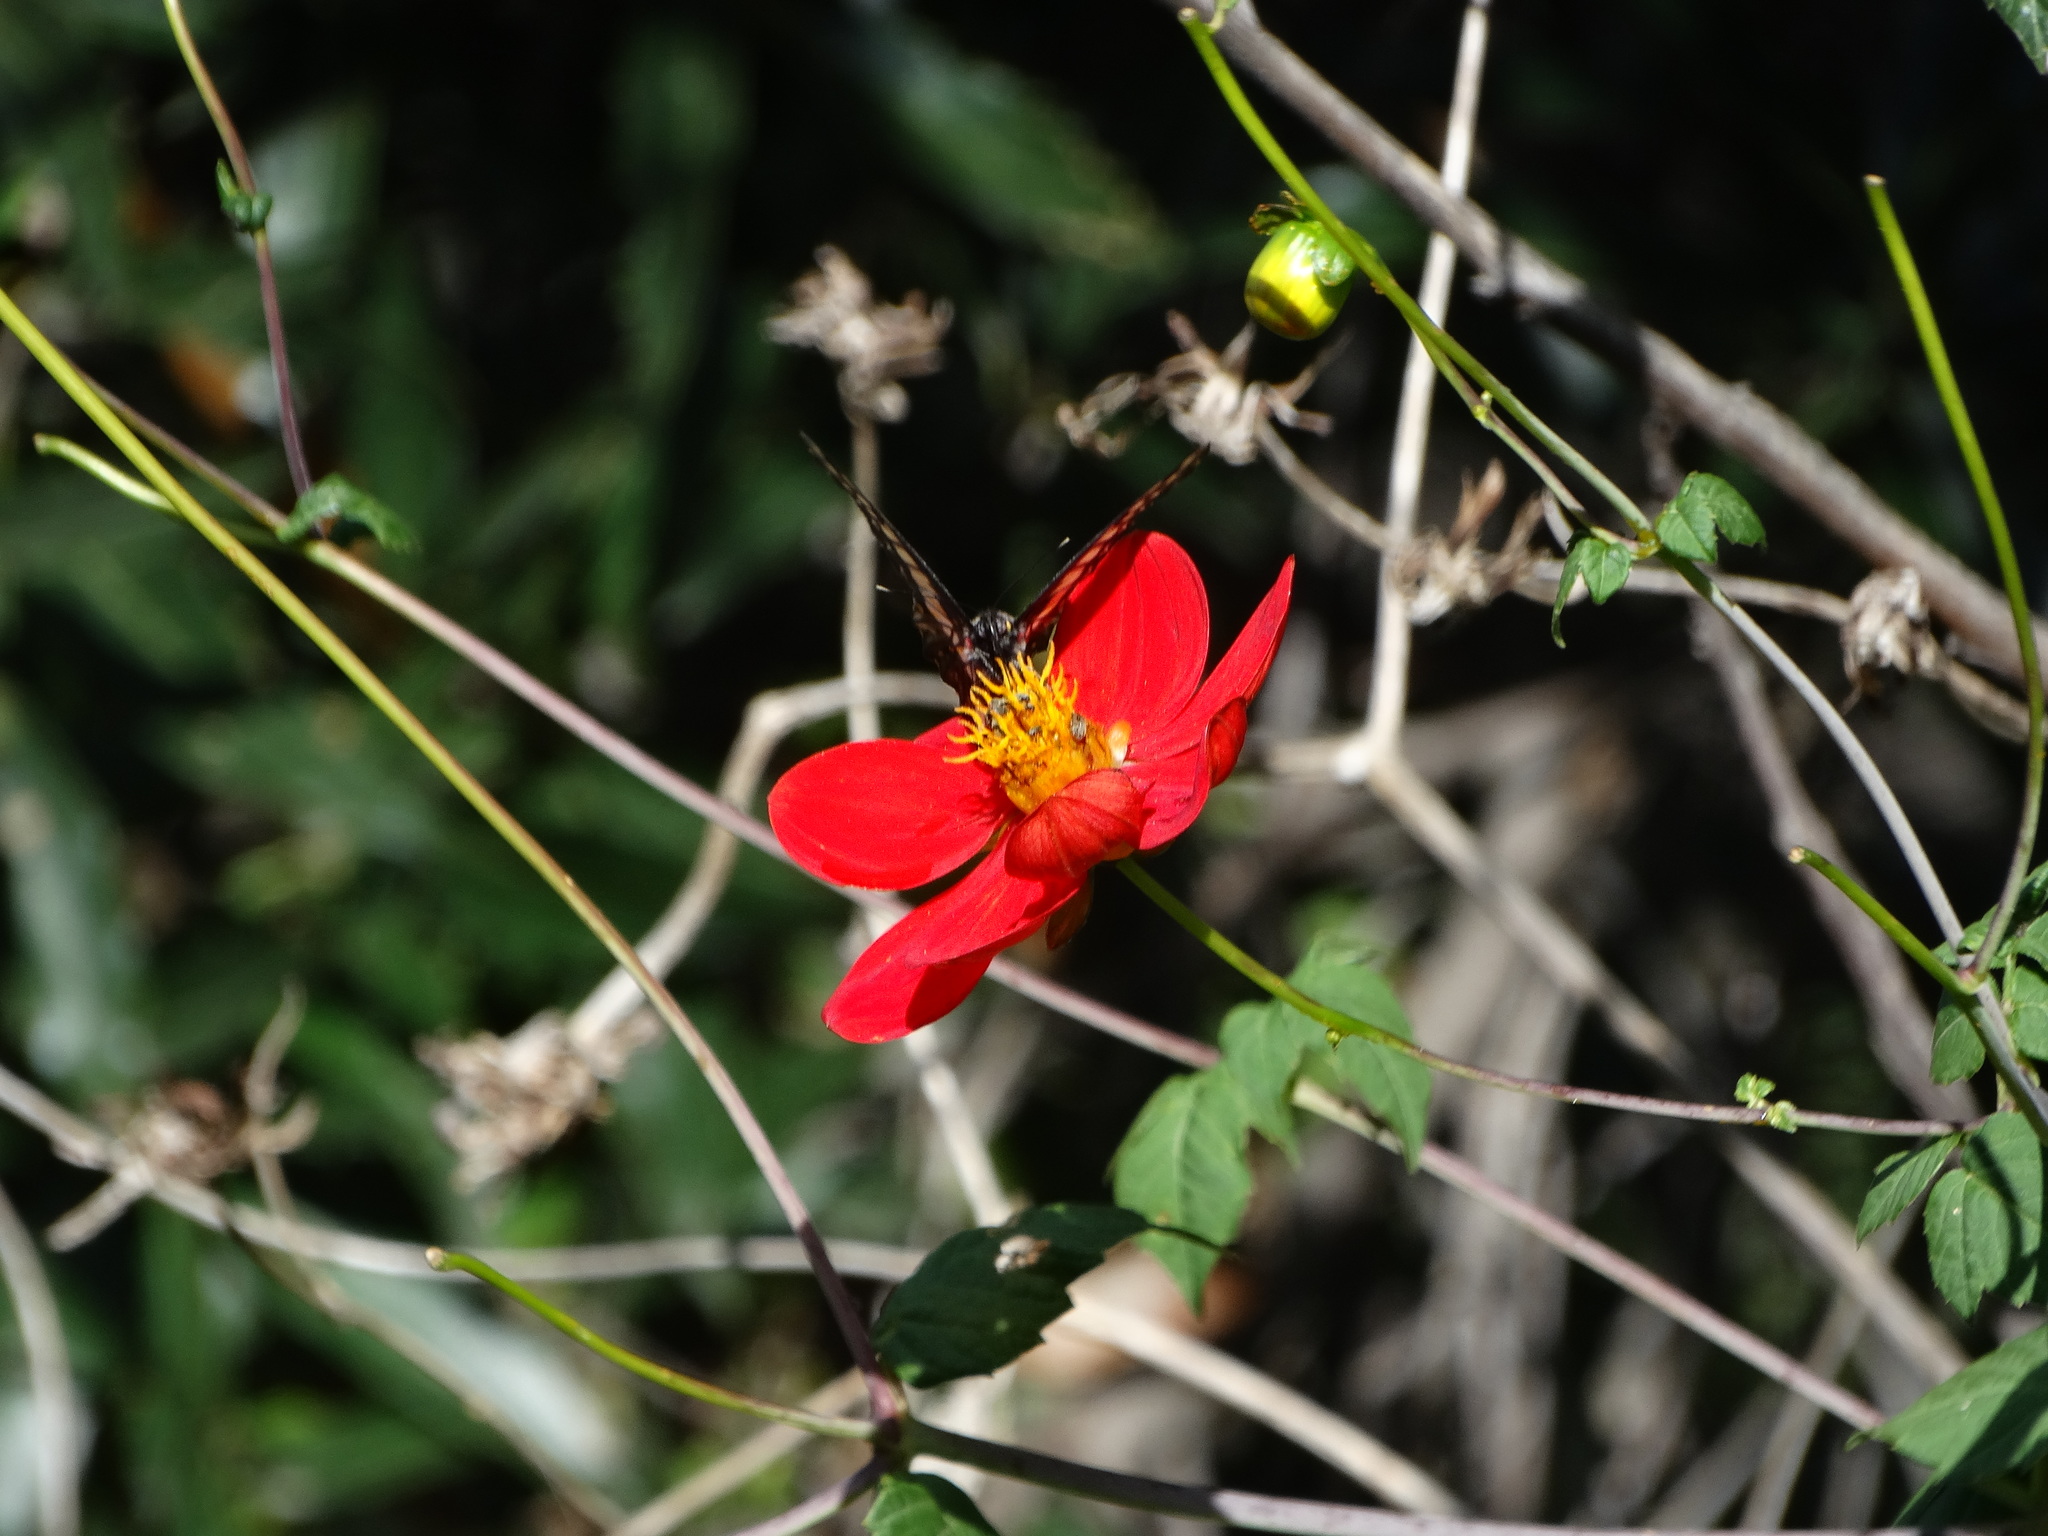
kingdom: Plantae
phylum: Tracheophyta
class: Magnoliopsida
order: Asterales
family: Asteraceae
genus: Dahlia
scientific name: Dahlia coccinea
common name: Red dahlia
